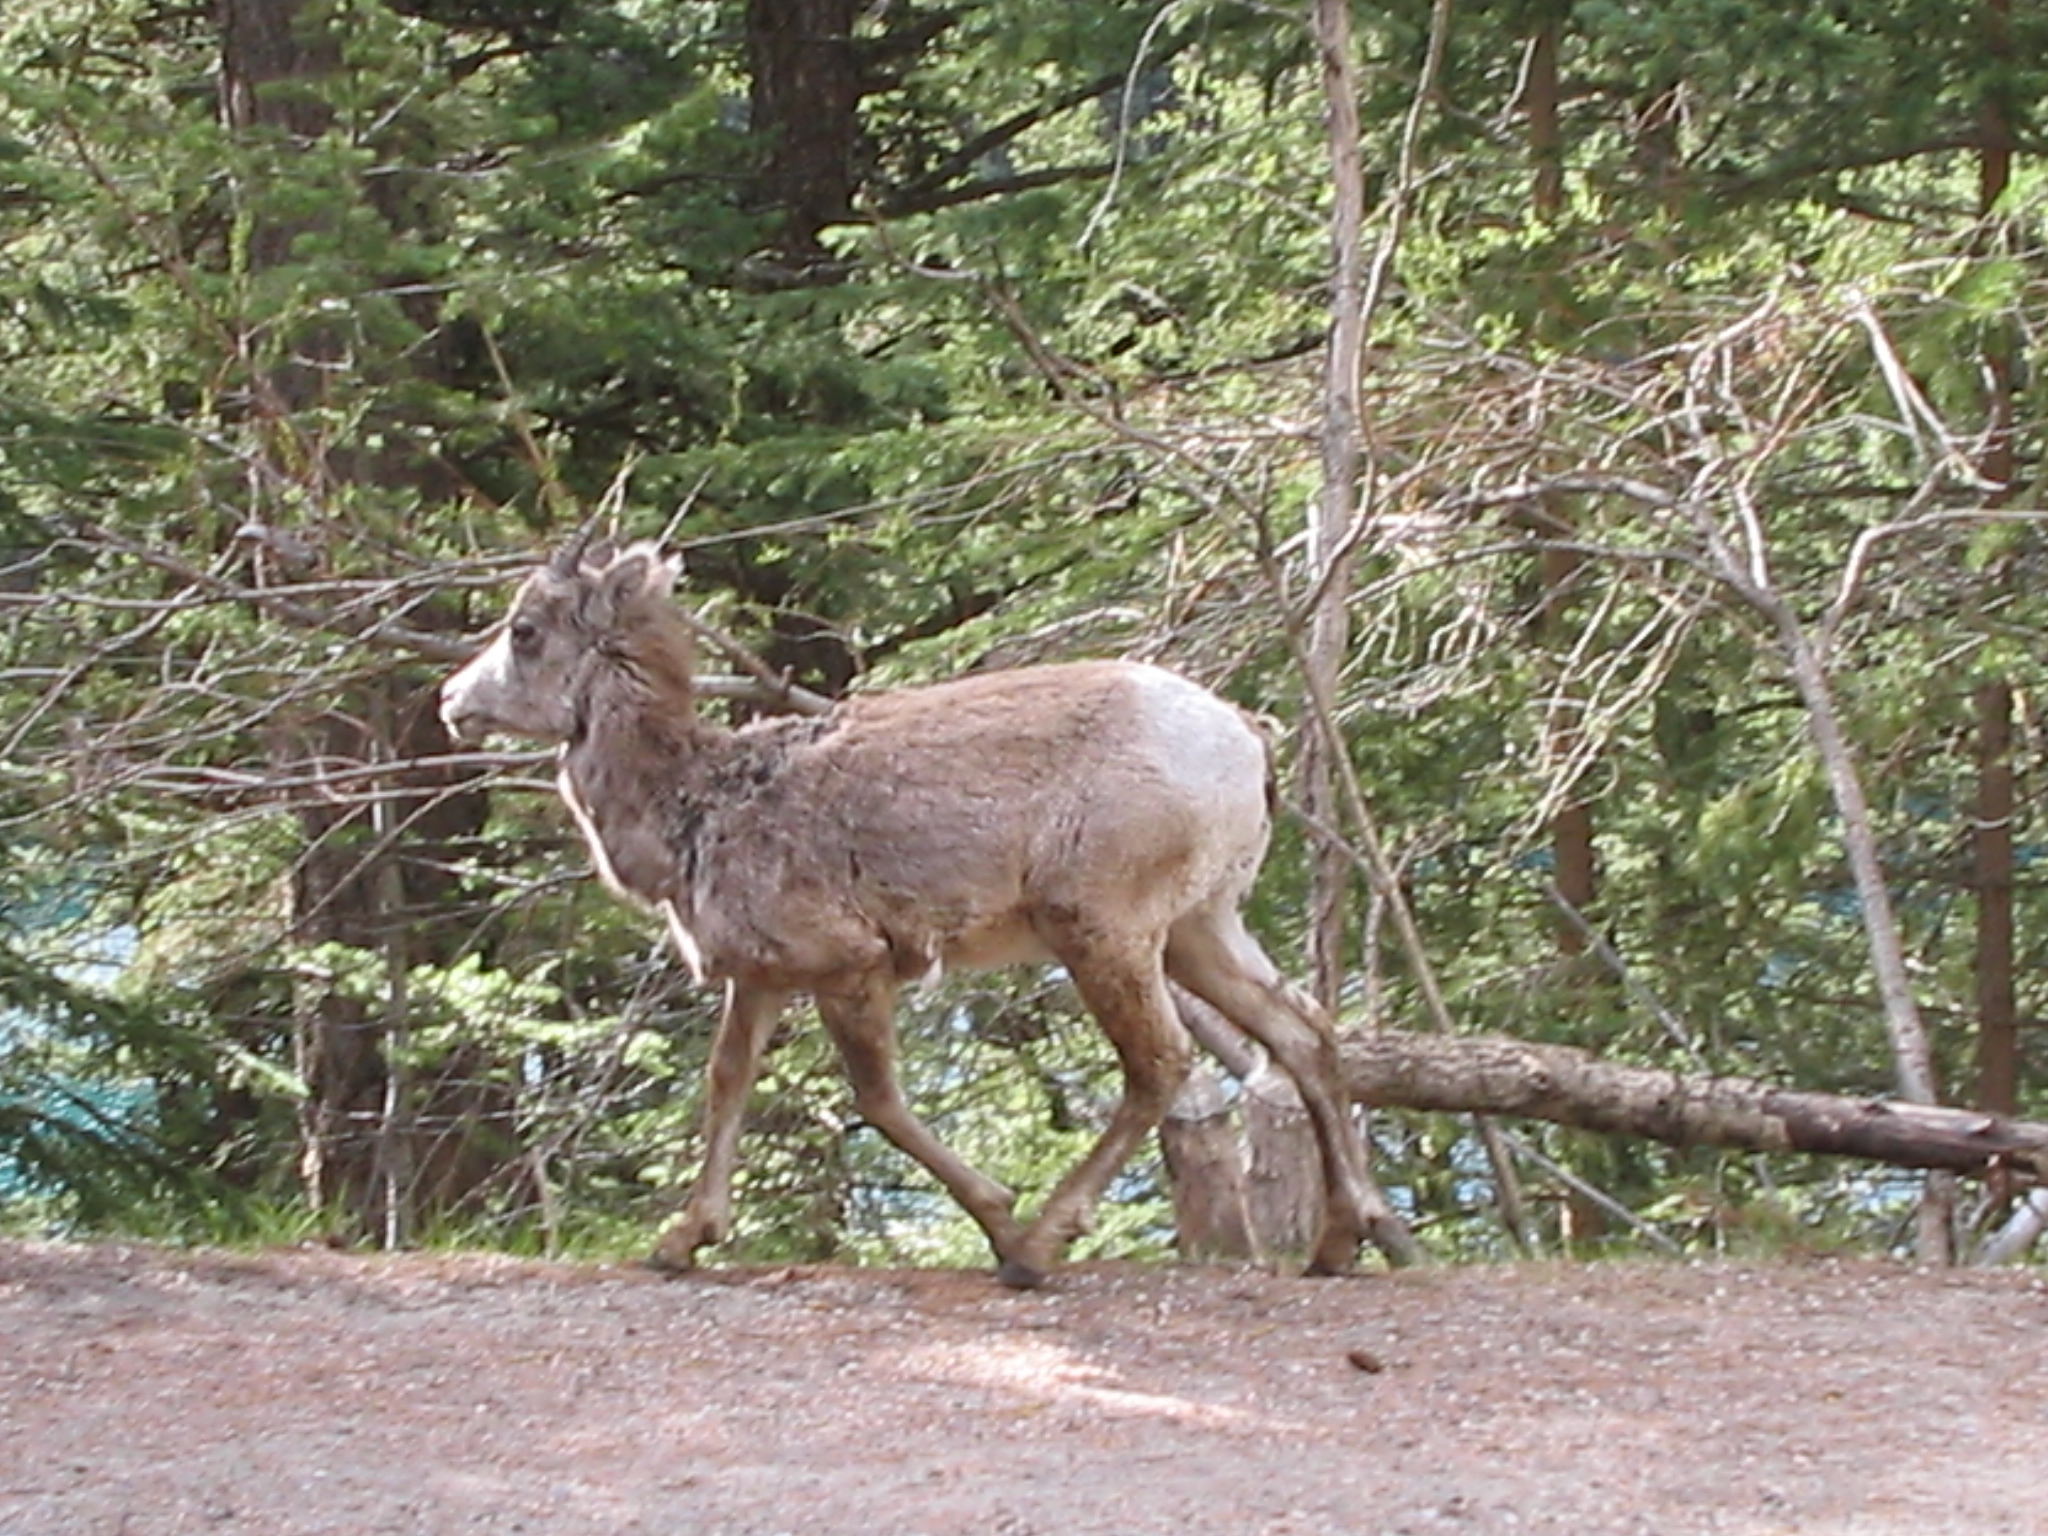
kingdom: Animalia
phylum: Chordata
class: Mammalia
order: Artiodactyla
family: Bovidae
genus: Ovis
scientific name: Ovis canadensis
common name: Bighorn sheep
